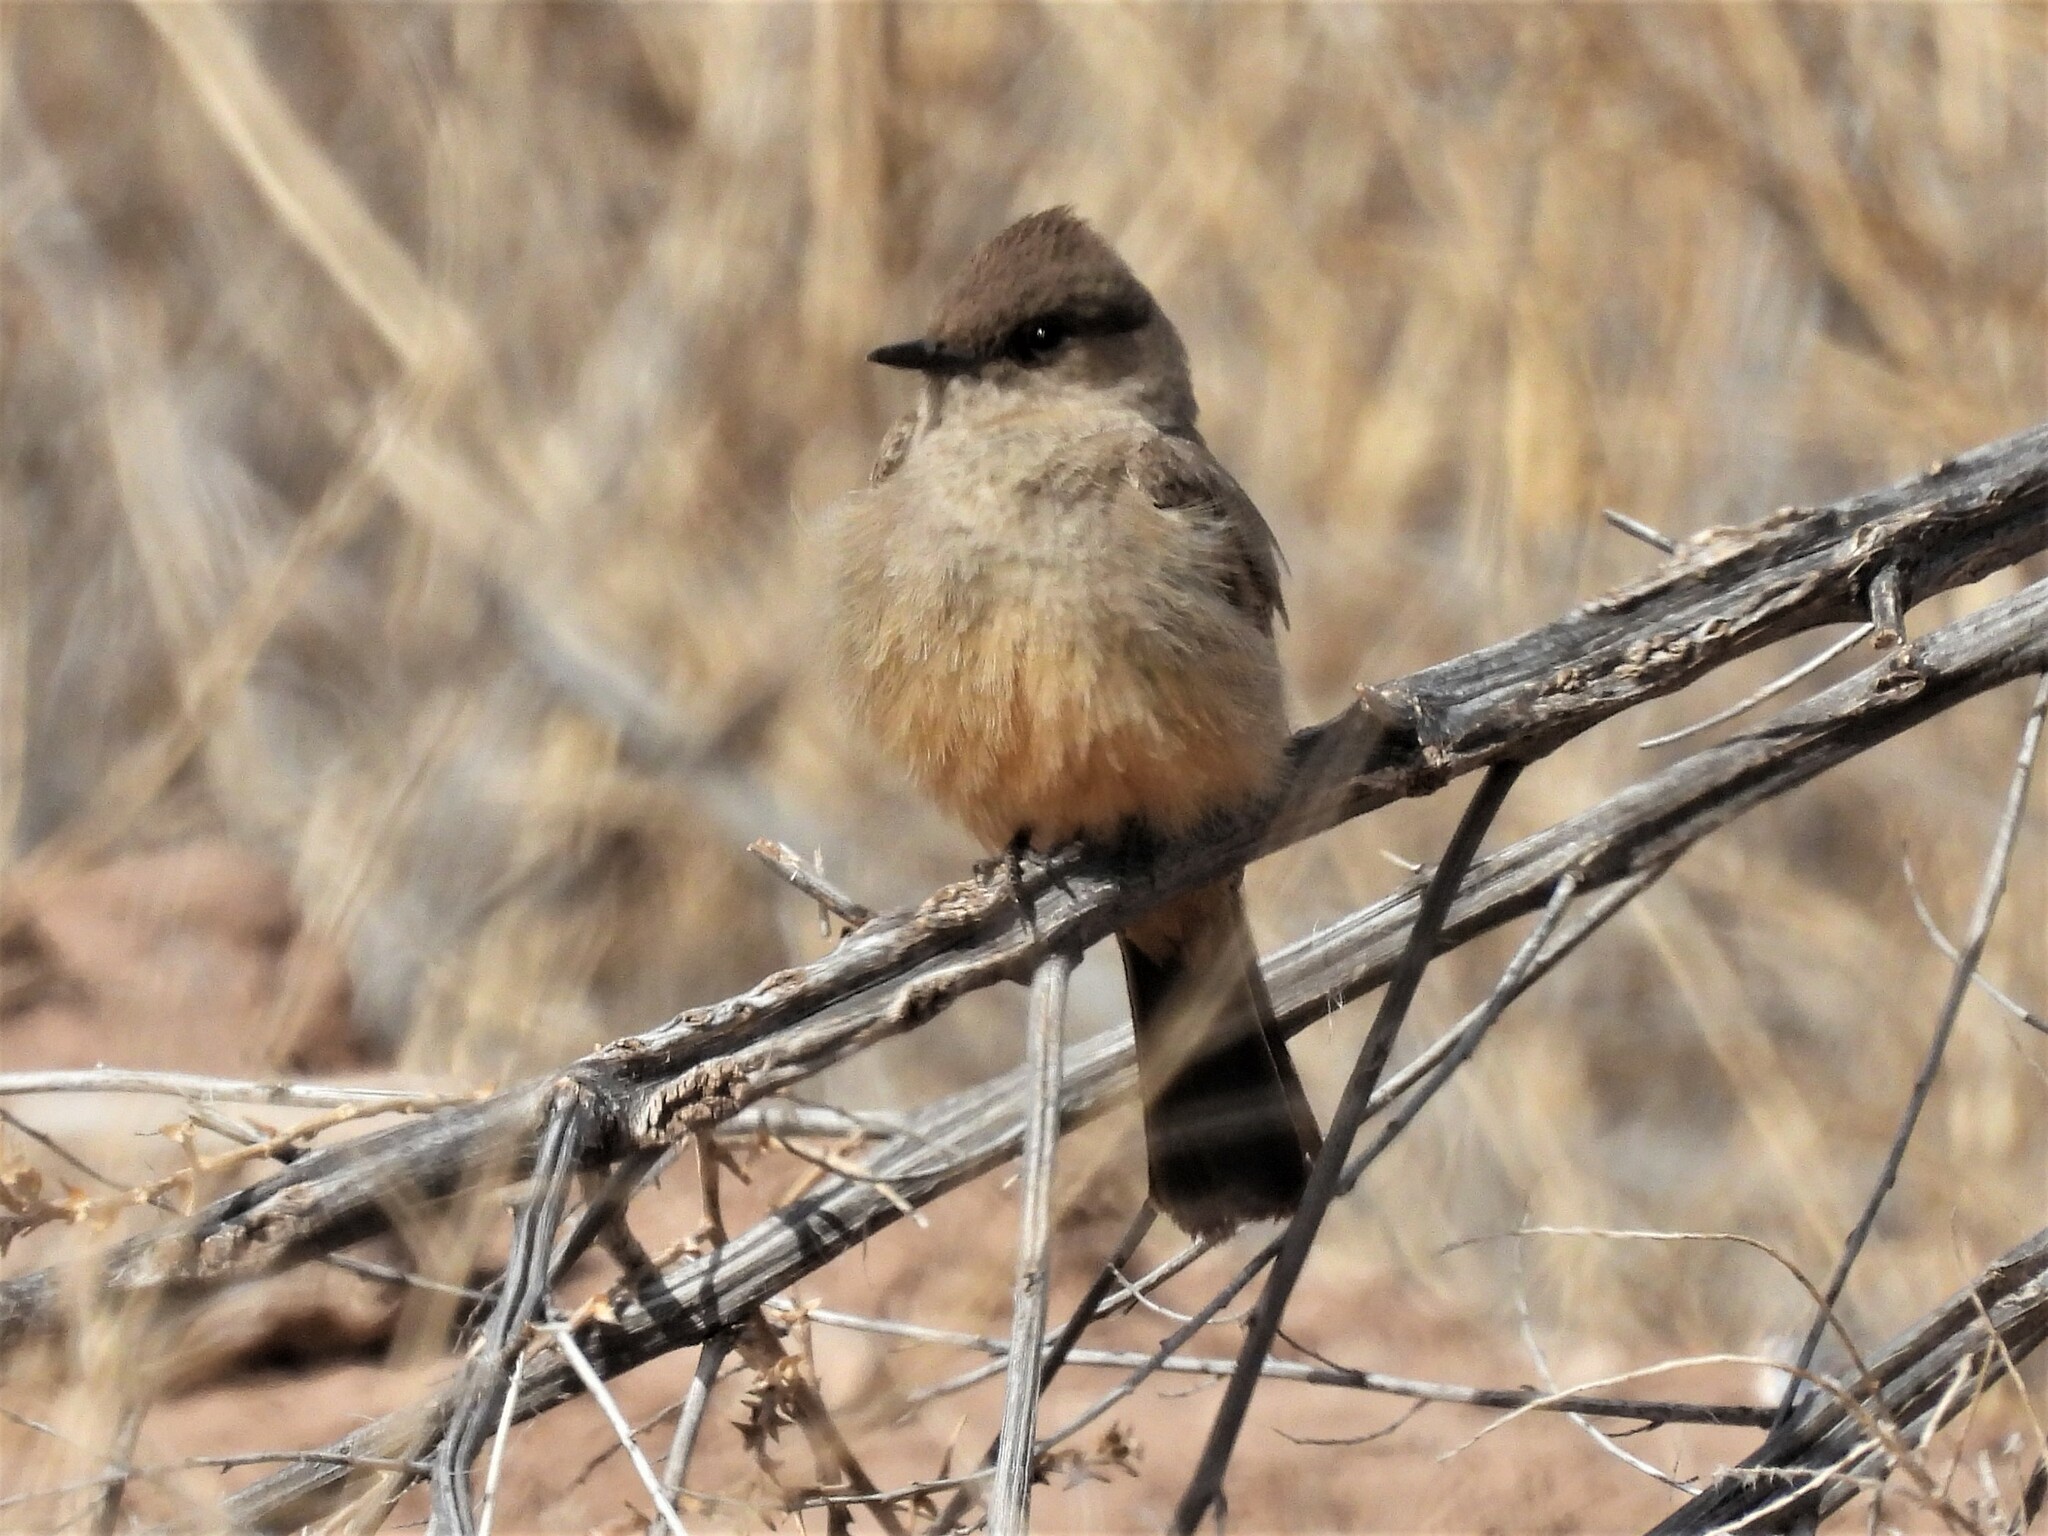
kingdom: Animalia
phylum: Chordata
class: Aves
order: Passeriformes
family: Tyrannidae
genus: Sayornis
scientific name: Sayornis saya
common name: Say's phoebe
